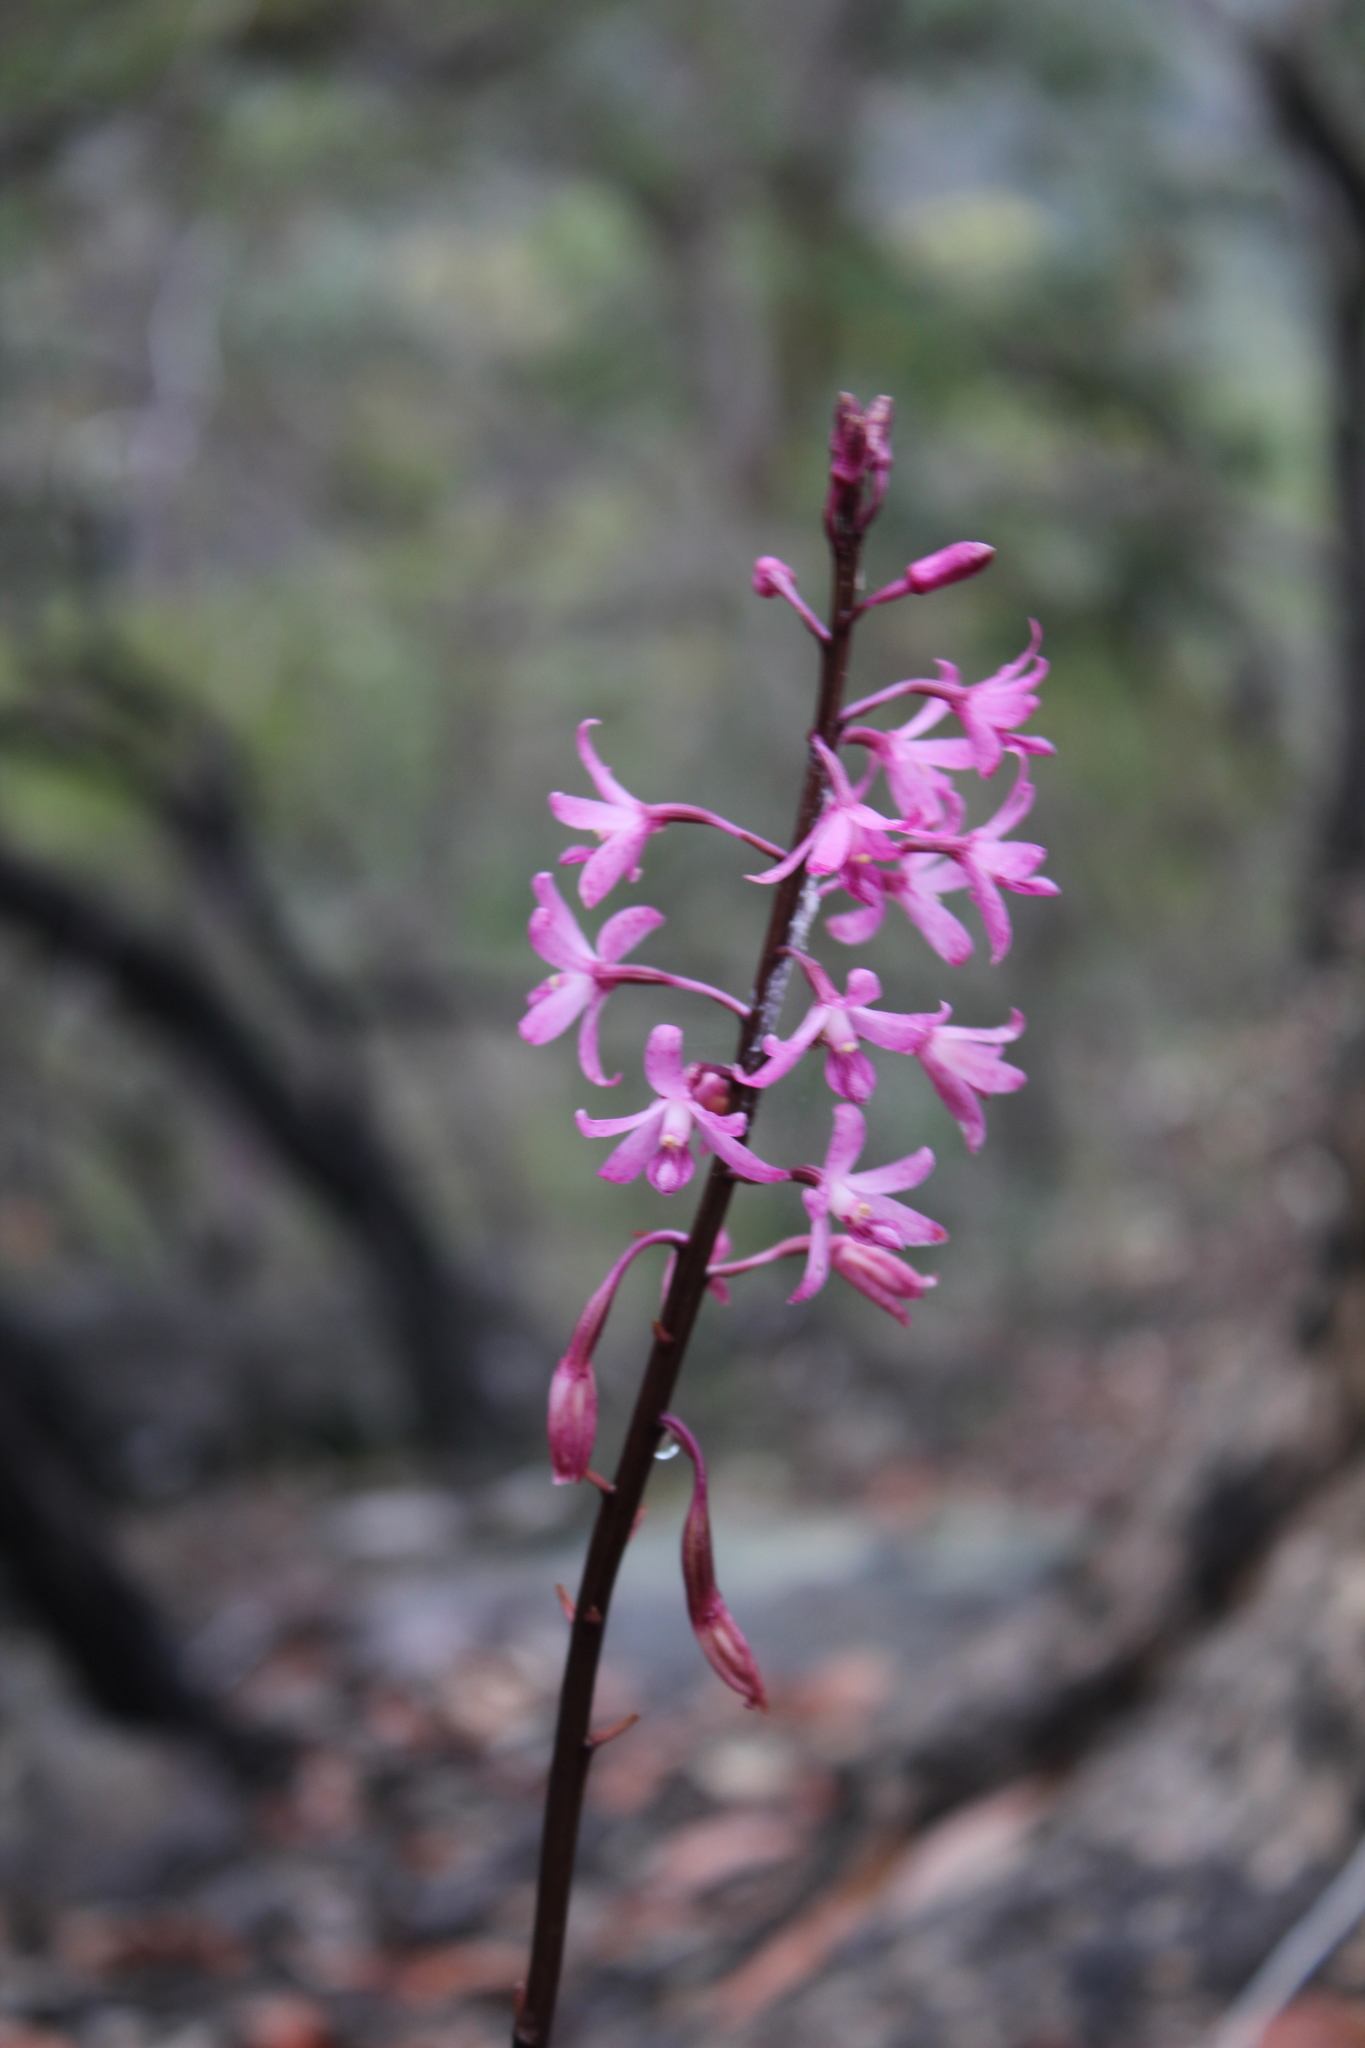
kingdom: Plantae
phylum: Tracheophyta
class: Liliopsida
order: Asparagales
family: Orchidaceae
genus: Dipodium
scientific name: Dipodium roseum
